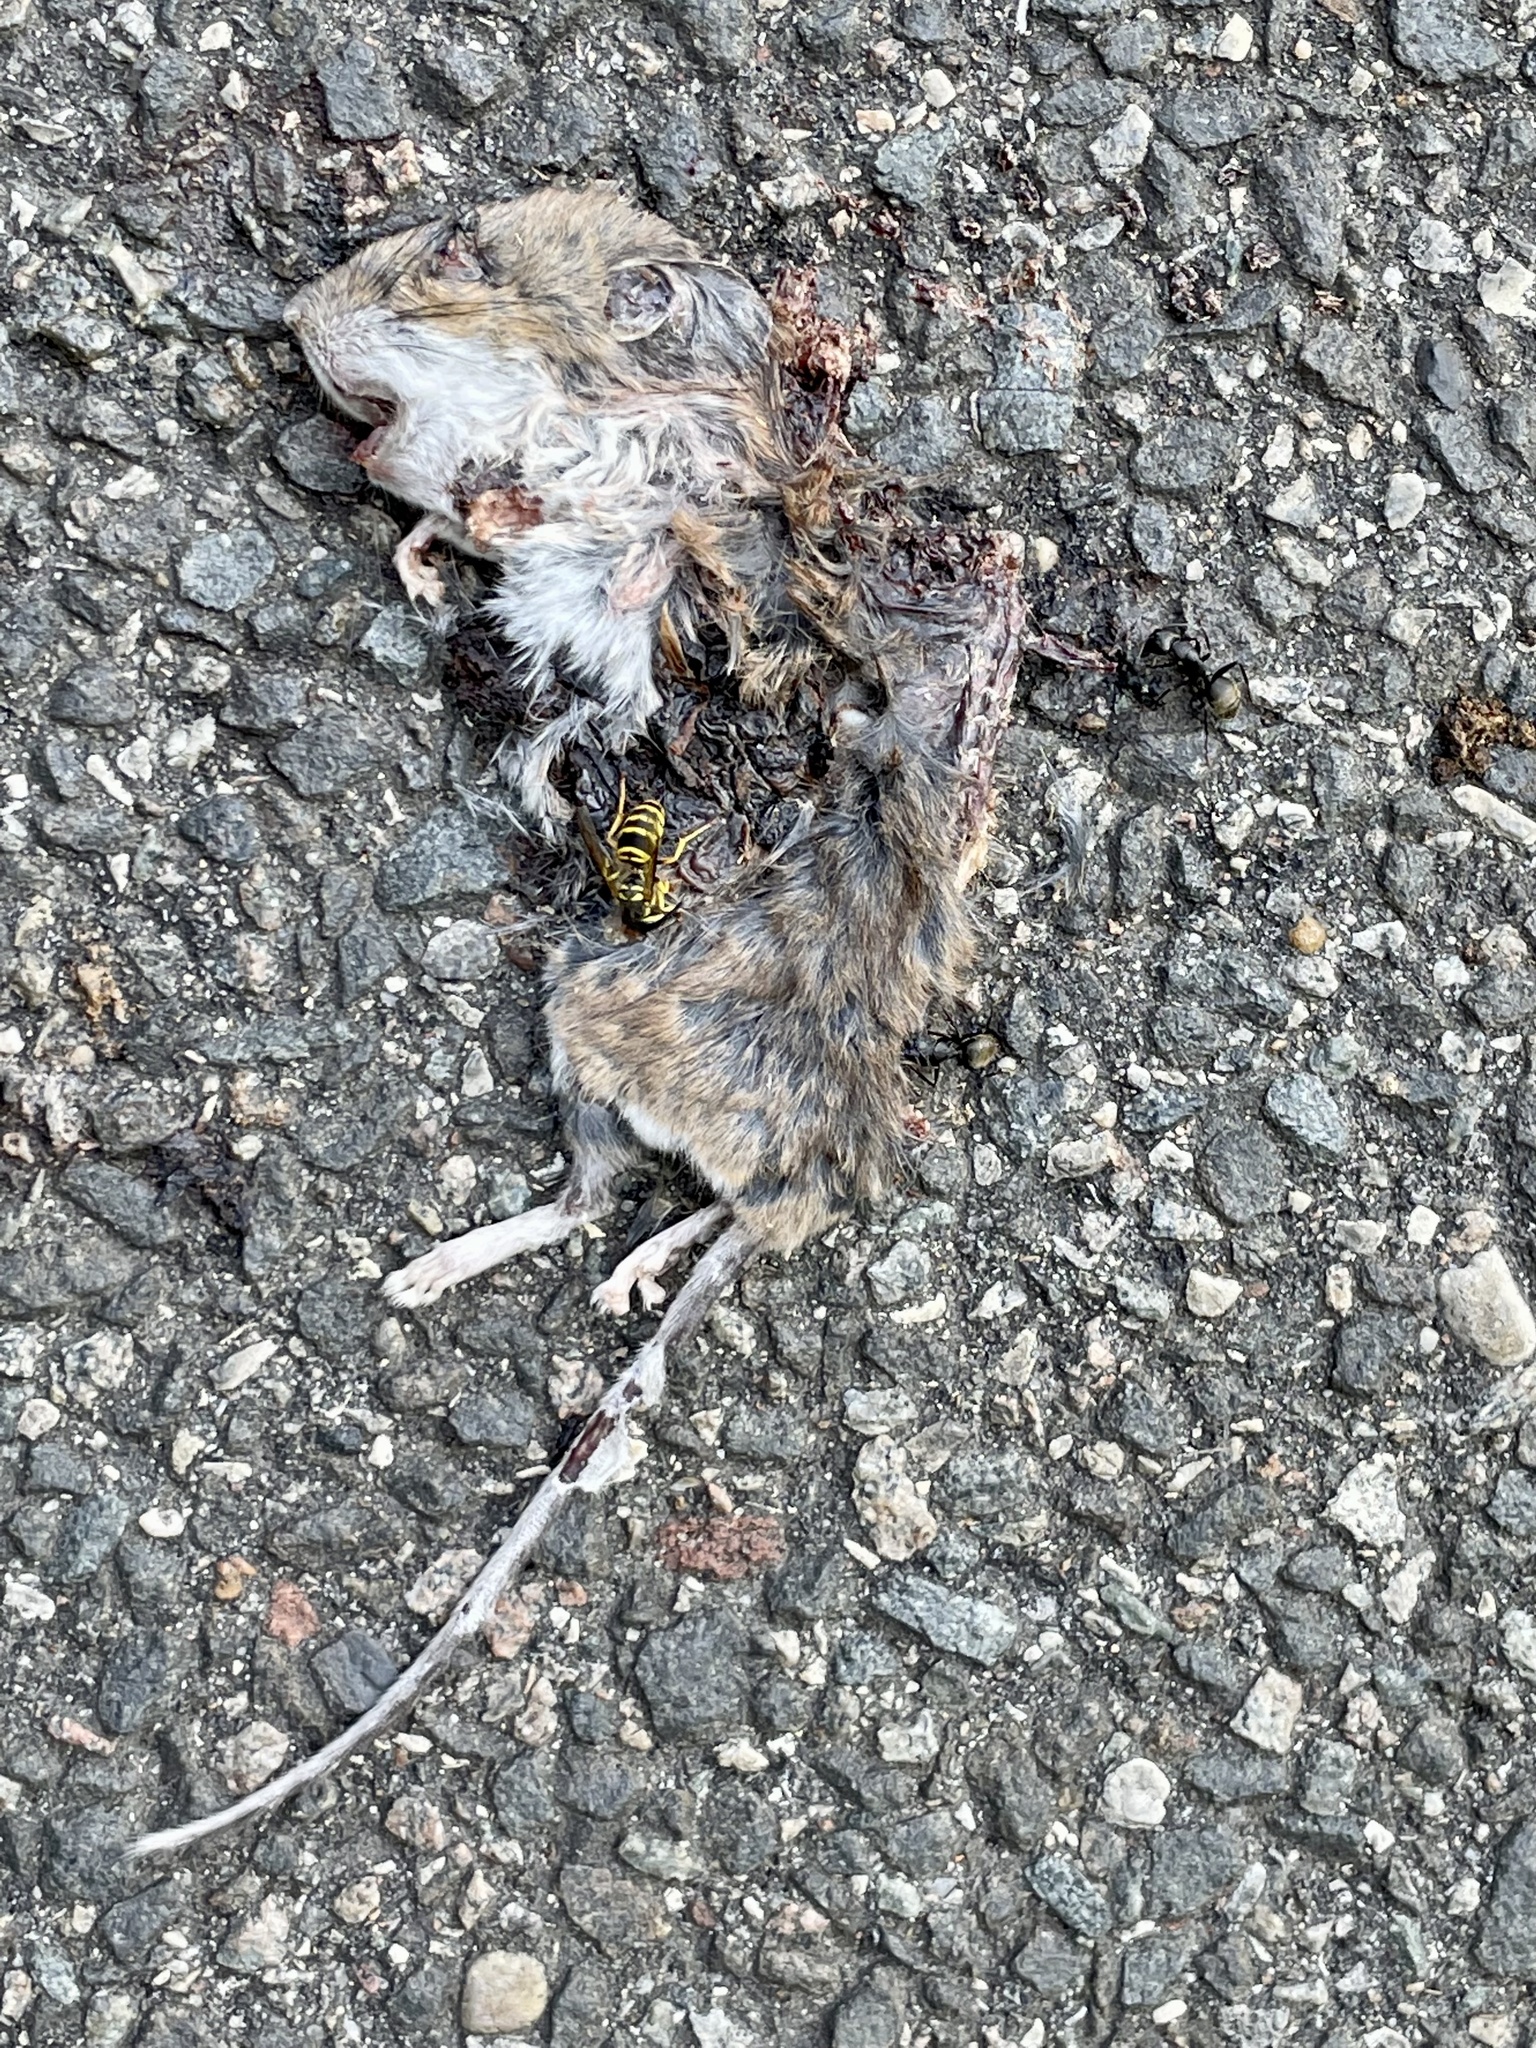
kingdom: Animalia
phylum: Chordata
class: Mammalia
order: Rodentia
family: Cricetidae
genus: Peromyscus
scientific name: Peromyscus leucopus
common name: White-footed deermouse
